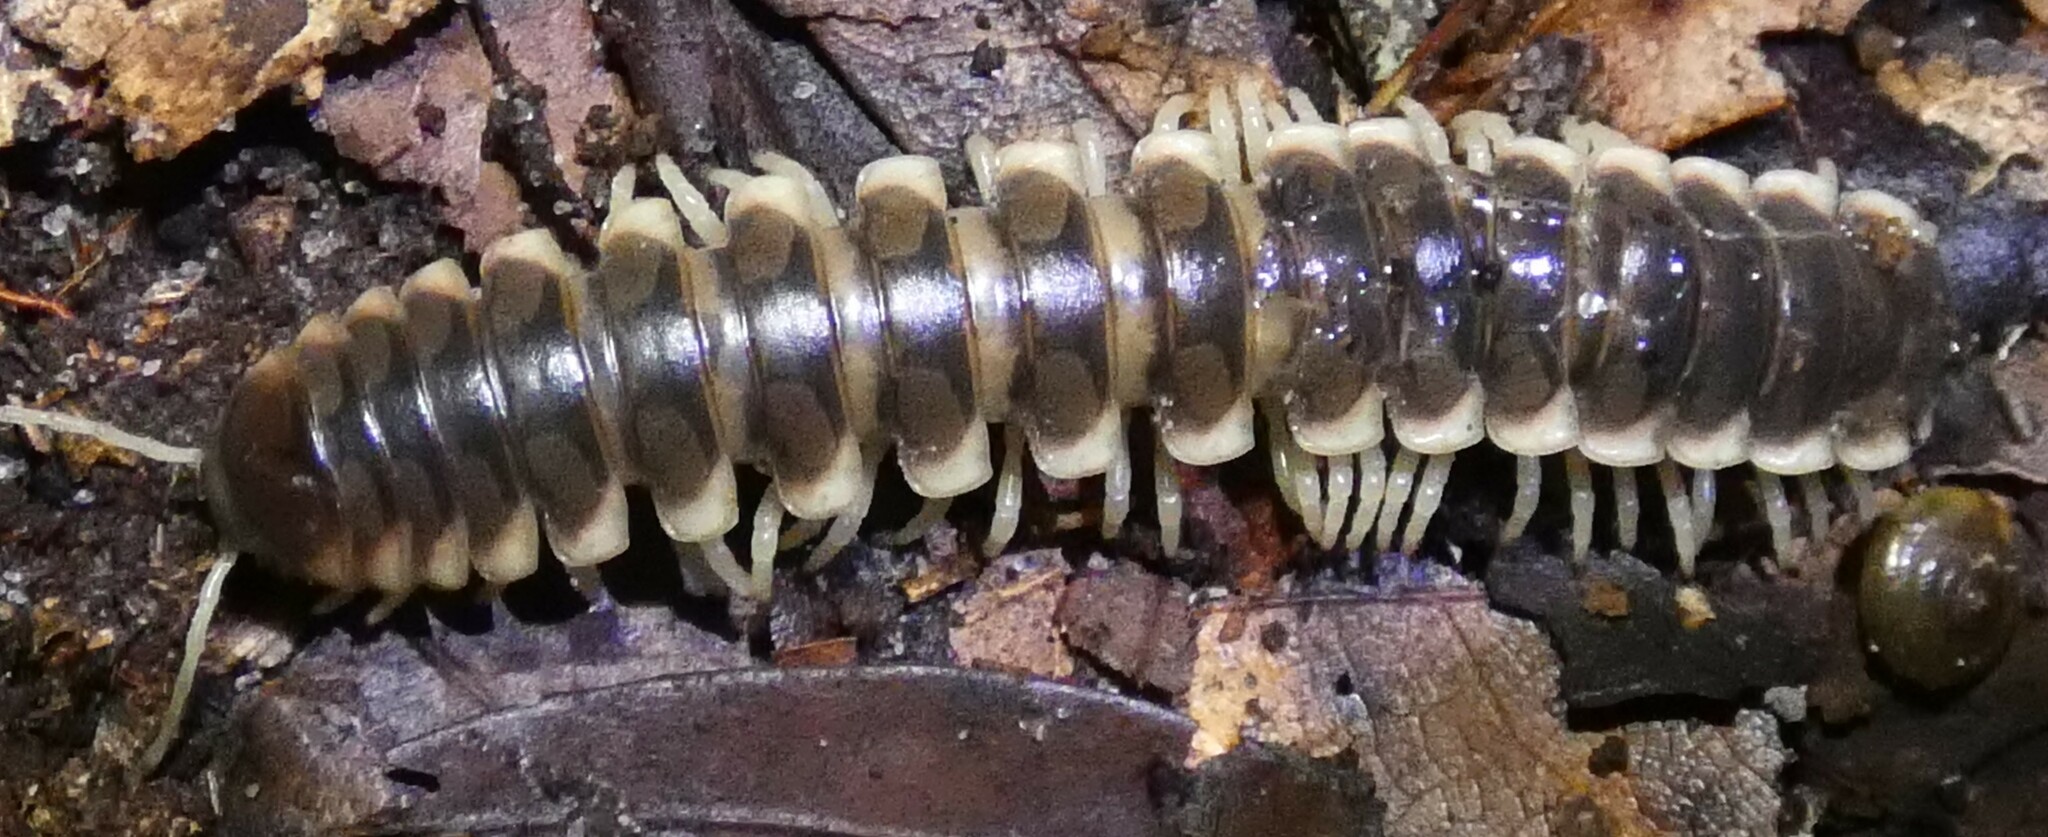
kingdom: Animalia
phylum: Arthropoda
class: Diplopoda
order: Polydesmida
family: Xystodesmidae
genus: Pachydesmus
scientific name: Pachydesmus incursus
